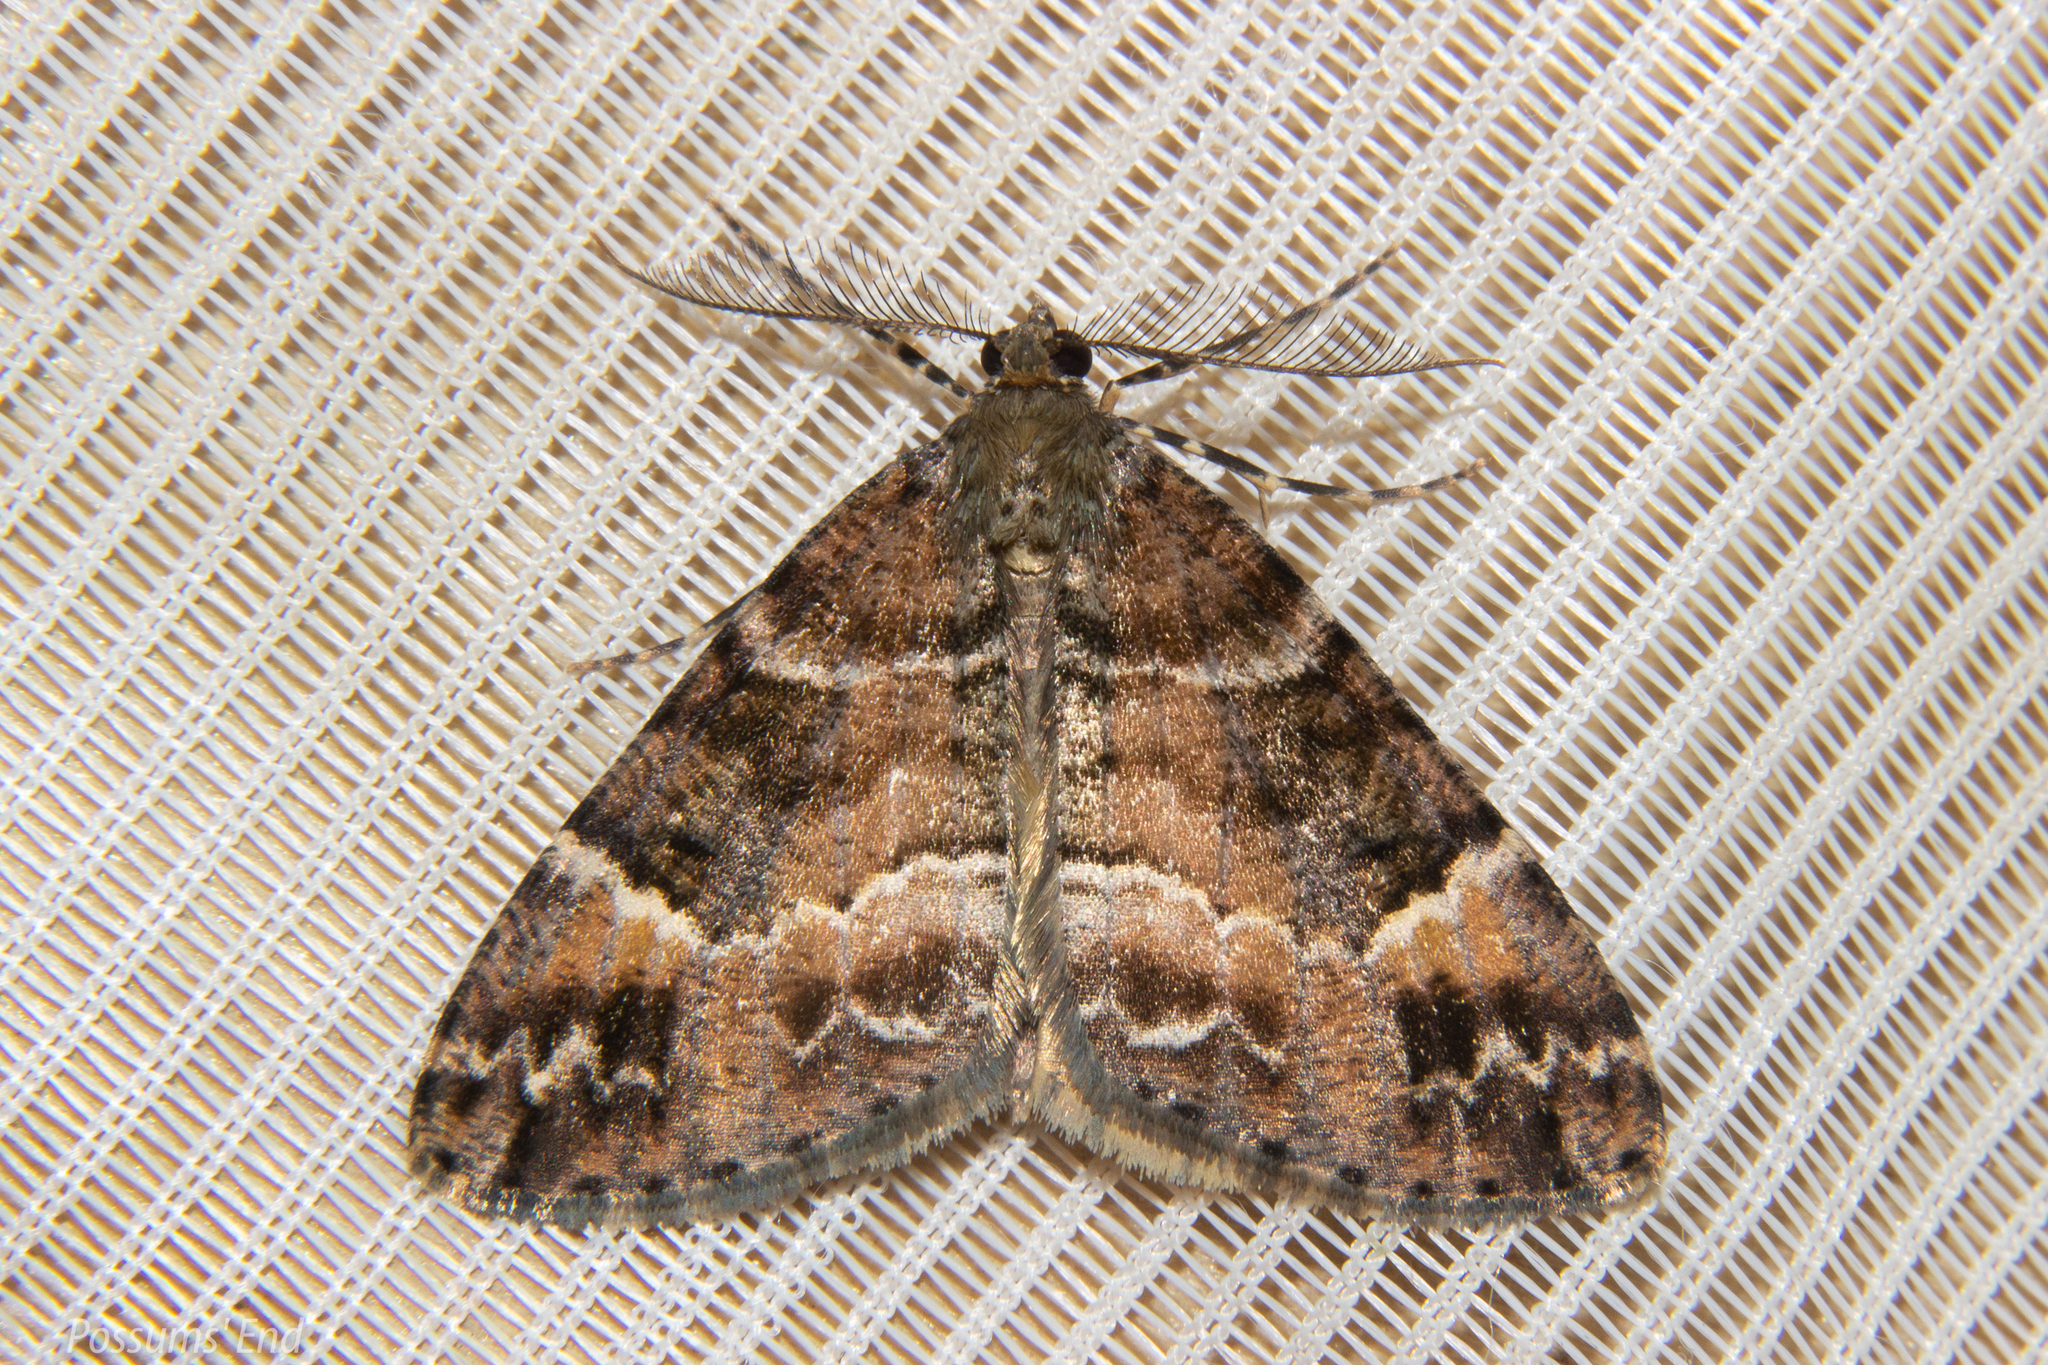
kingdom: Animalia
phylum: Arthropoda
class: Insecta
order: Lepidoptera
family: Geometridae
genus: Pseudocoremia
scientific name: Pseudocoremia productata
